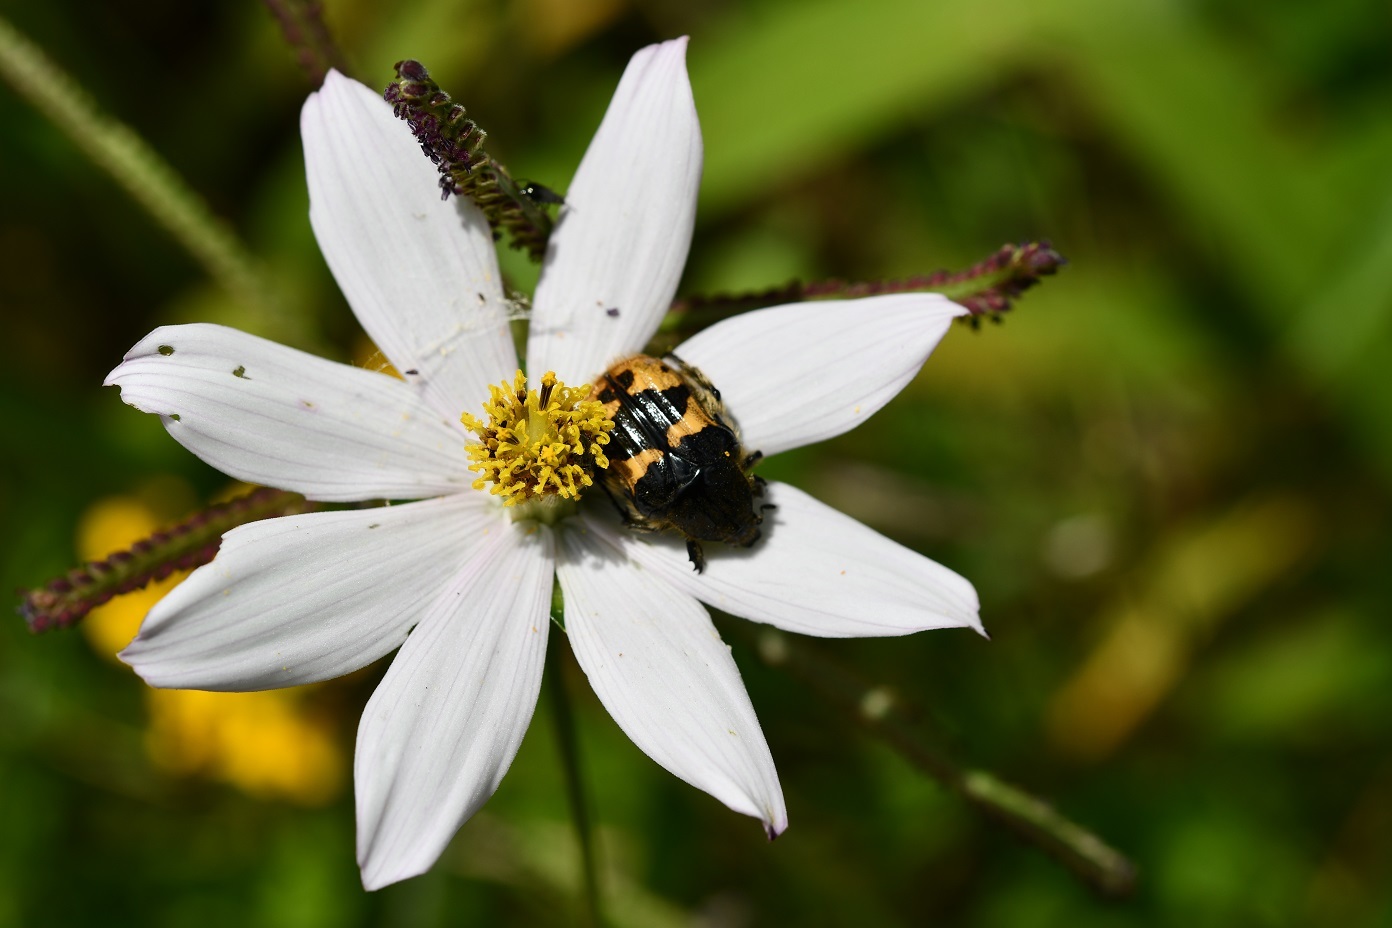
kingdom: Animalia
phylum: Arthropoda
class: Insecta
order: Coleoptera
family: Scarabaeidae
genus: Euphoria
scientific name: Euphoria basalis
